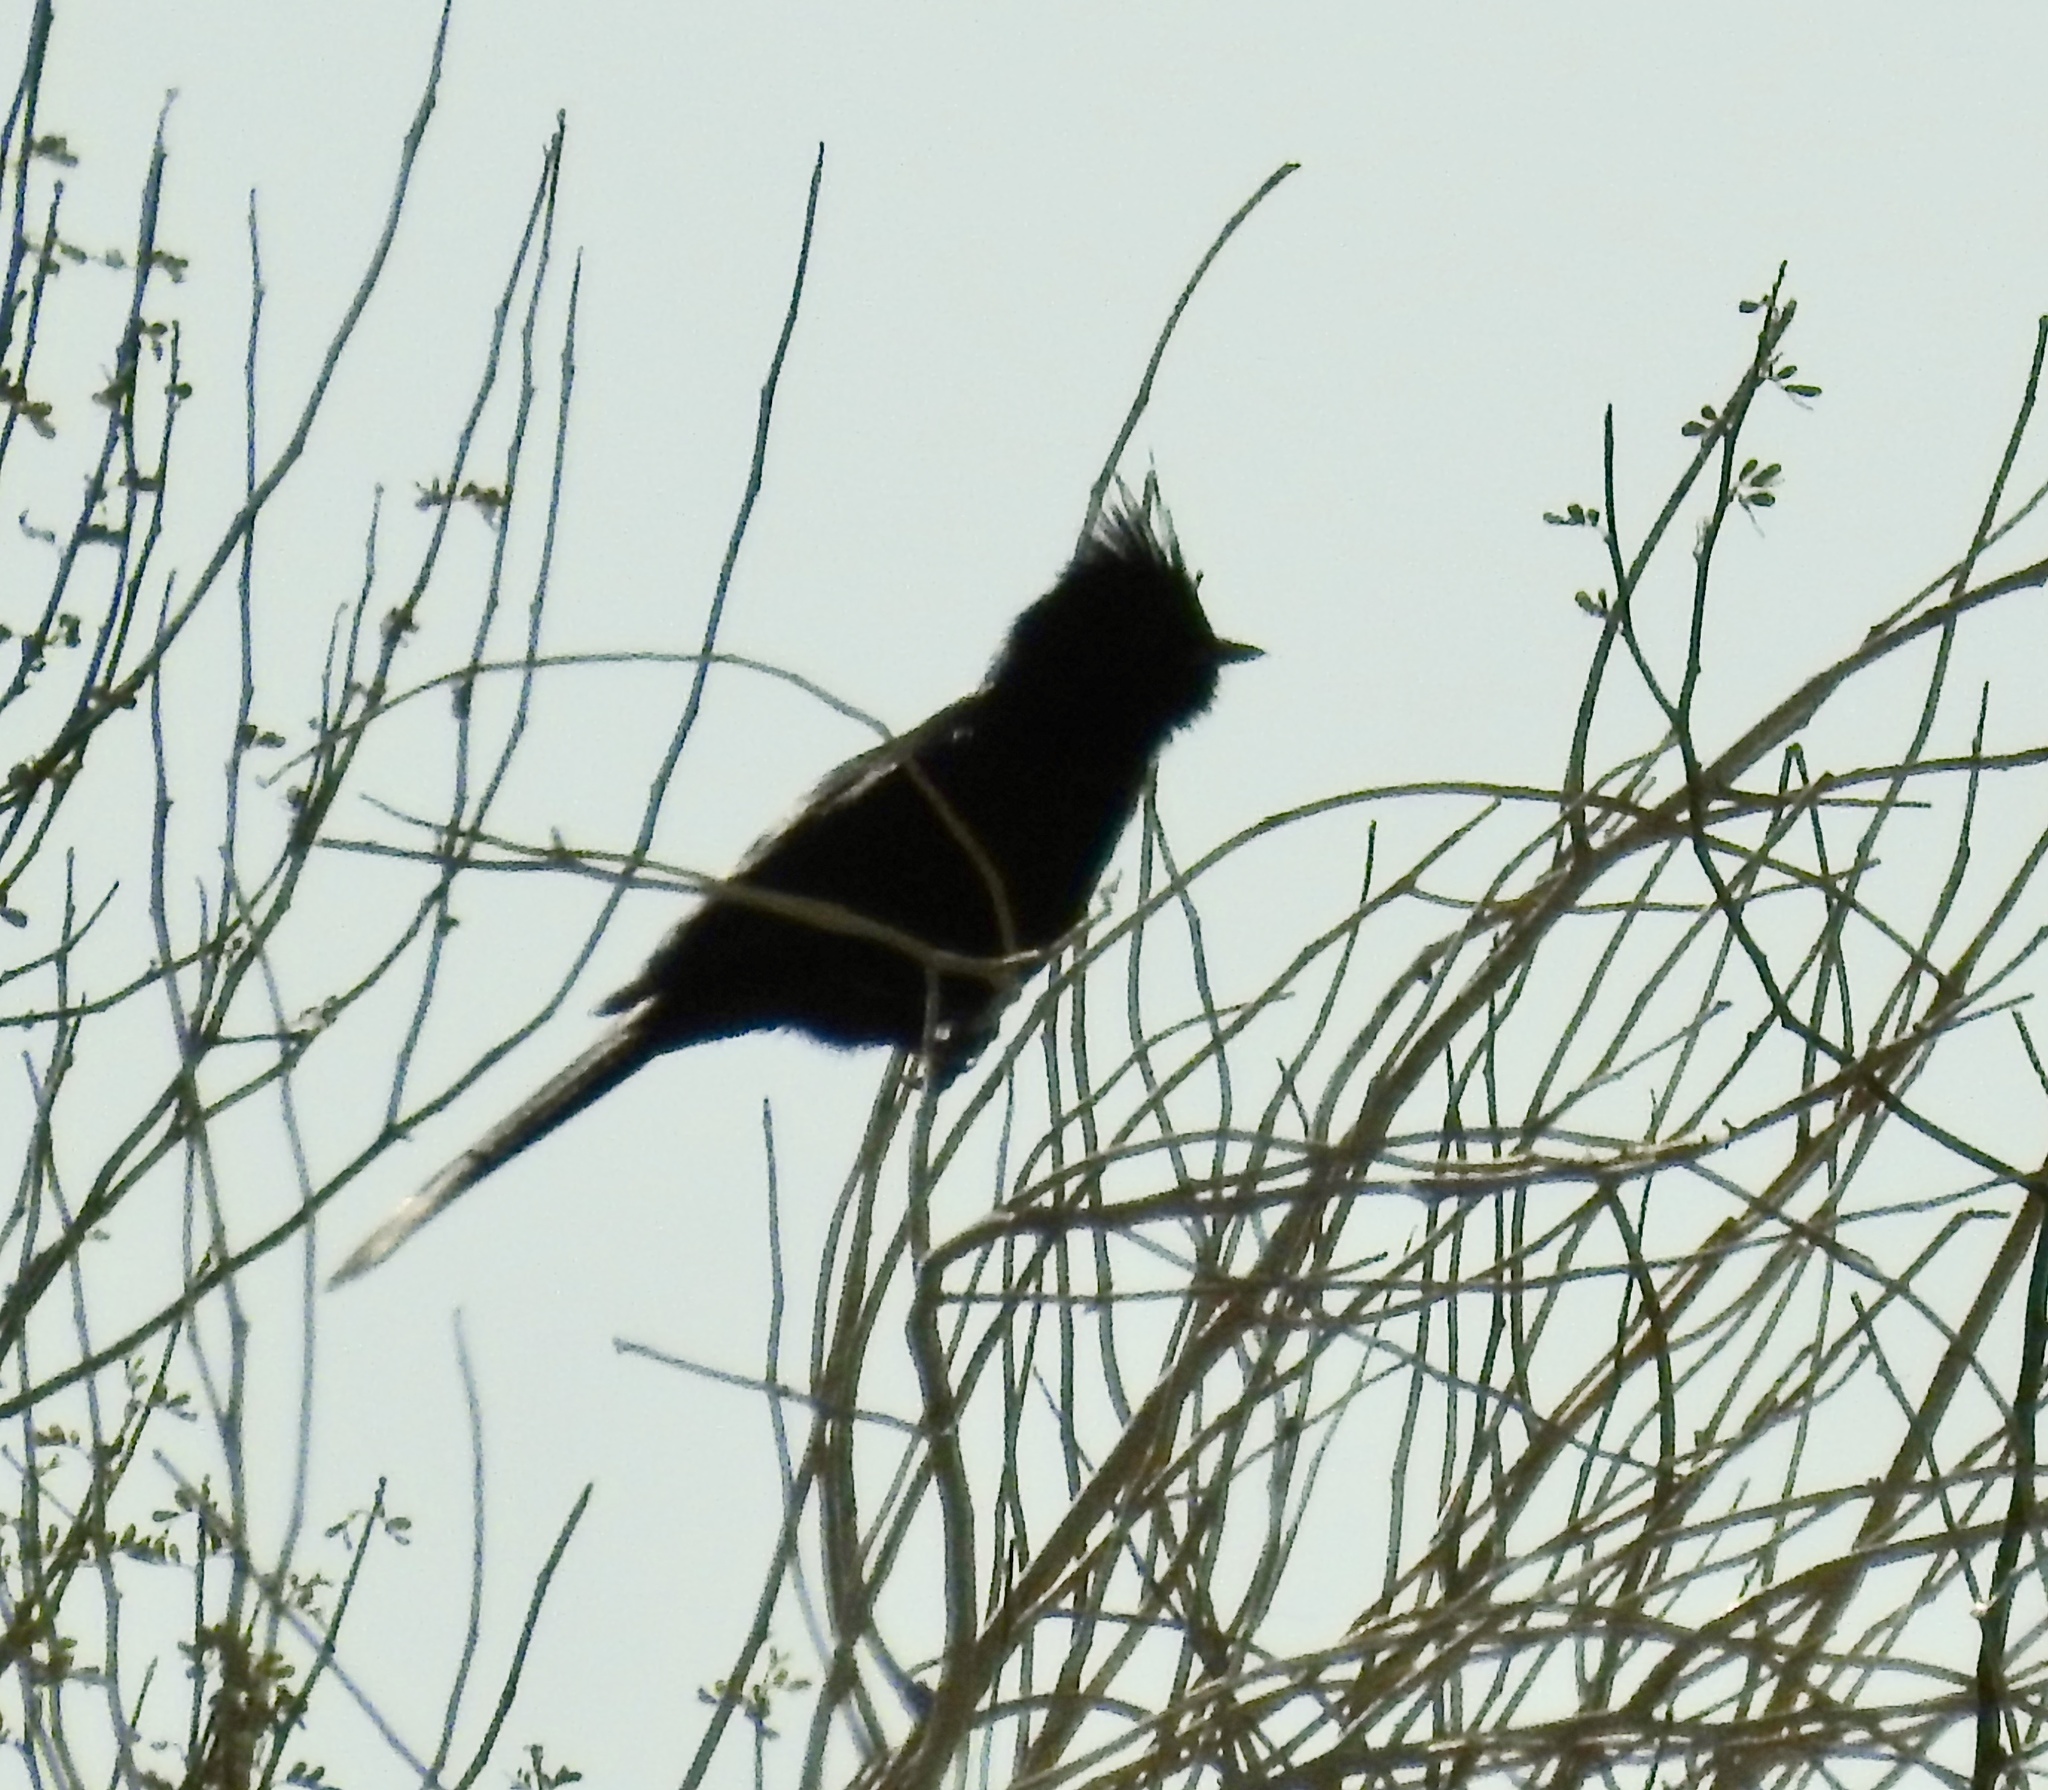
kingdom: Animalia
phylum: Chordata
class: Aves
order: Passeriformes
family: Ptilogonatidae
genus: Phainopepla
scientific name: Phainopepla nitens
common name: Phainopepla
